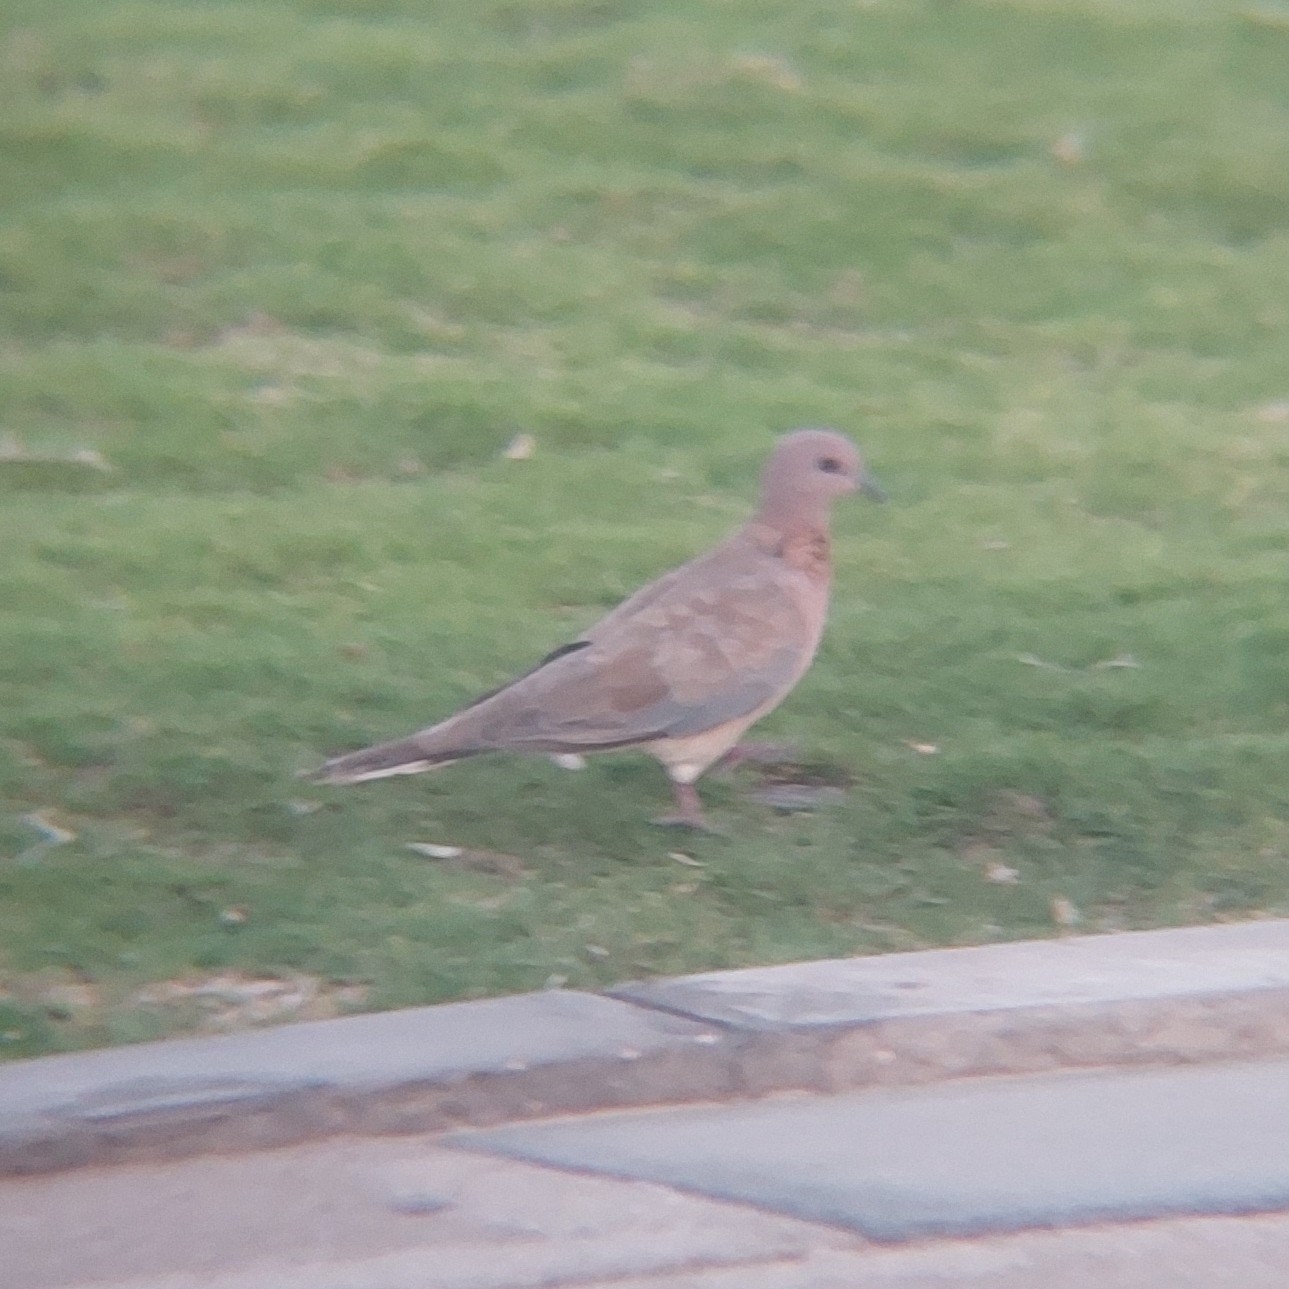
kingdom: Animalia
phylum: Chordata
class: Aves
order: Columbiformes
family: Columbidae
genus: Spilopelia
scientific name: Spilopelia senegalensis
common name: Laughing dove
